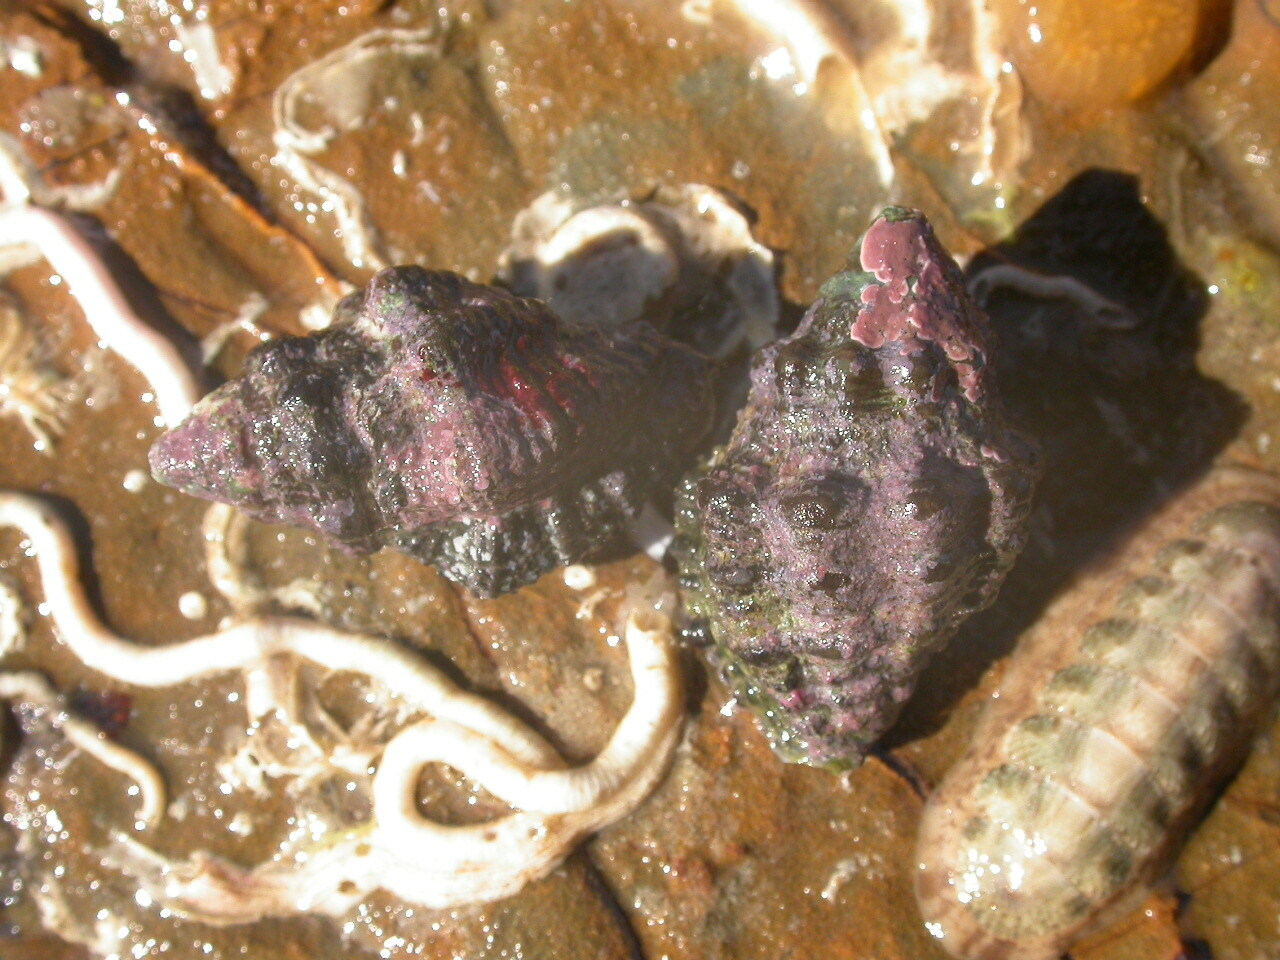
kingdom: Animalia
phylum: Mollusca
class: Gastropoda
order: Neogastropoda
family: Muricidae
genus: Drupella
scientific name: Drupella margariticola
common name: Shouldered castor bean
